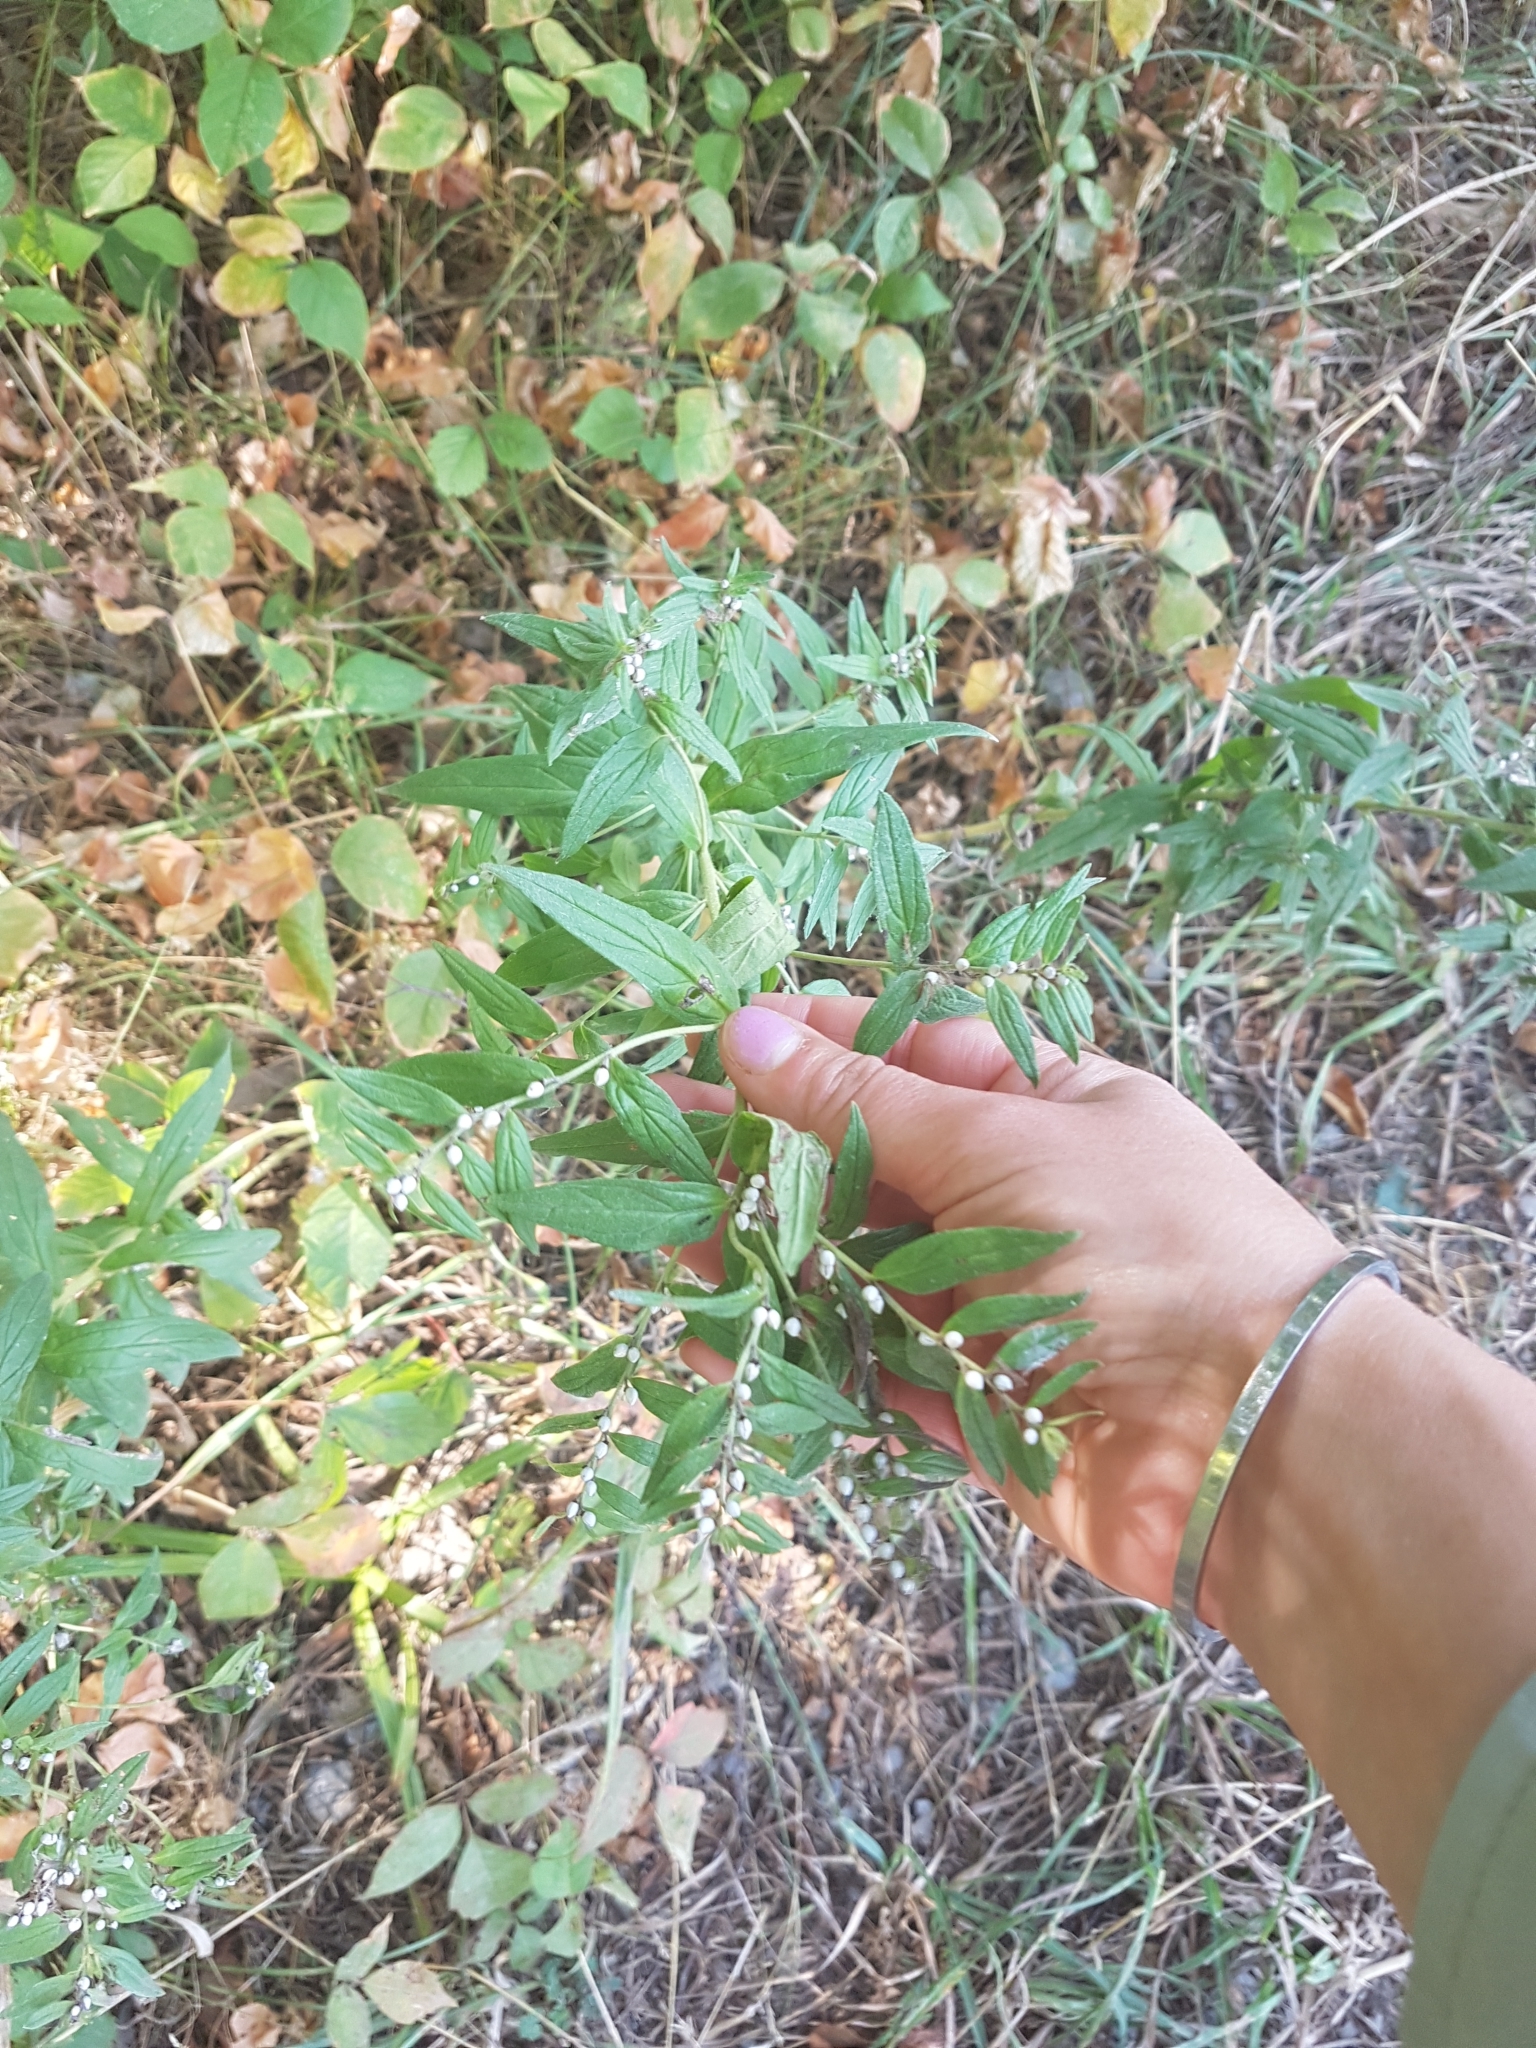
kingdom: Plantae
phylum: Tracheophyta
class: Magnoliopsida
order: Boraginales
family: Boraginaceae
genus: Lithospermum
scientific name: Lithospermum officinale
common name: Common gromwell
